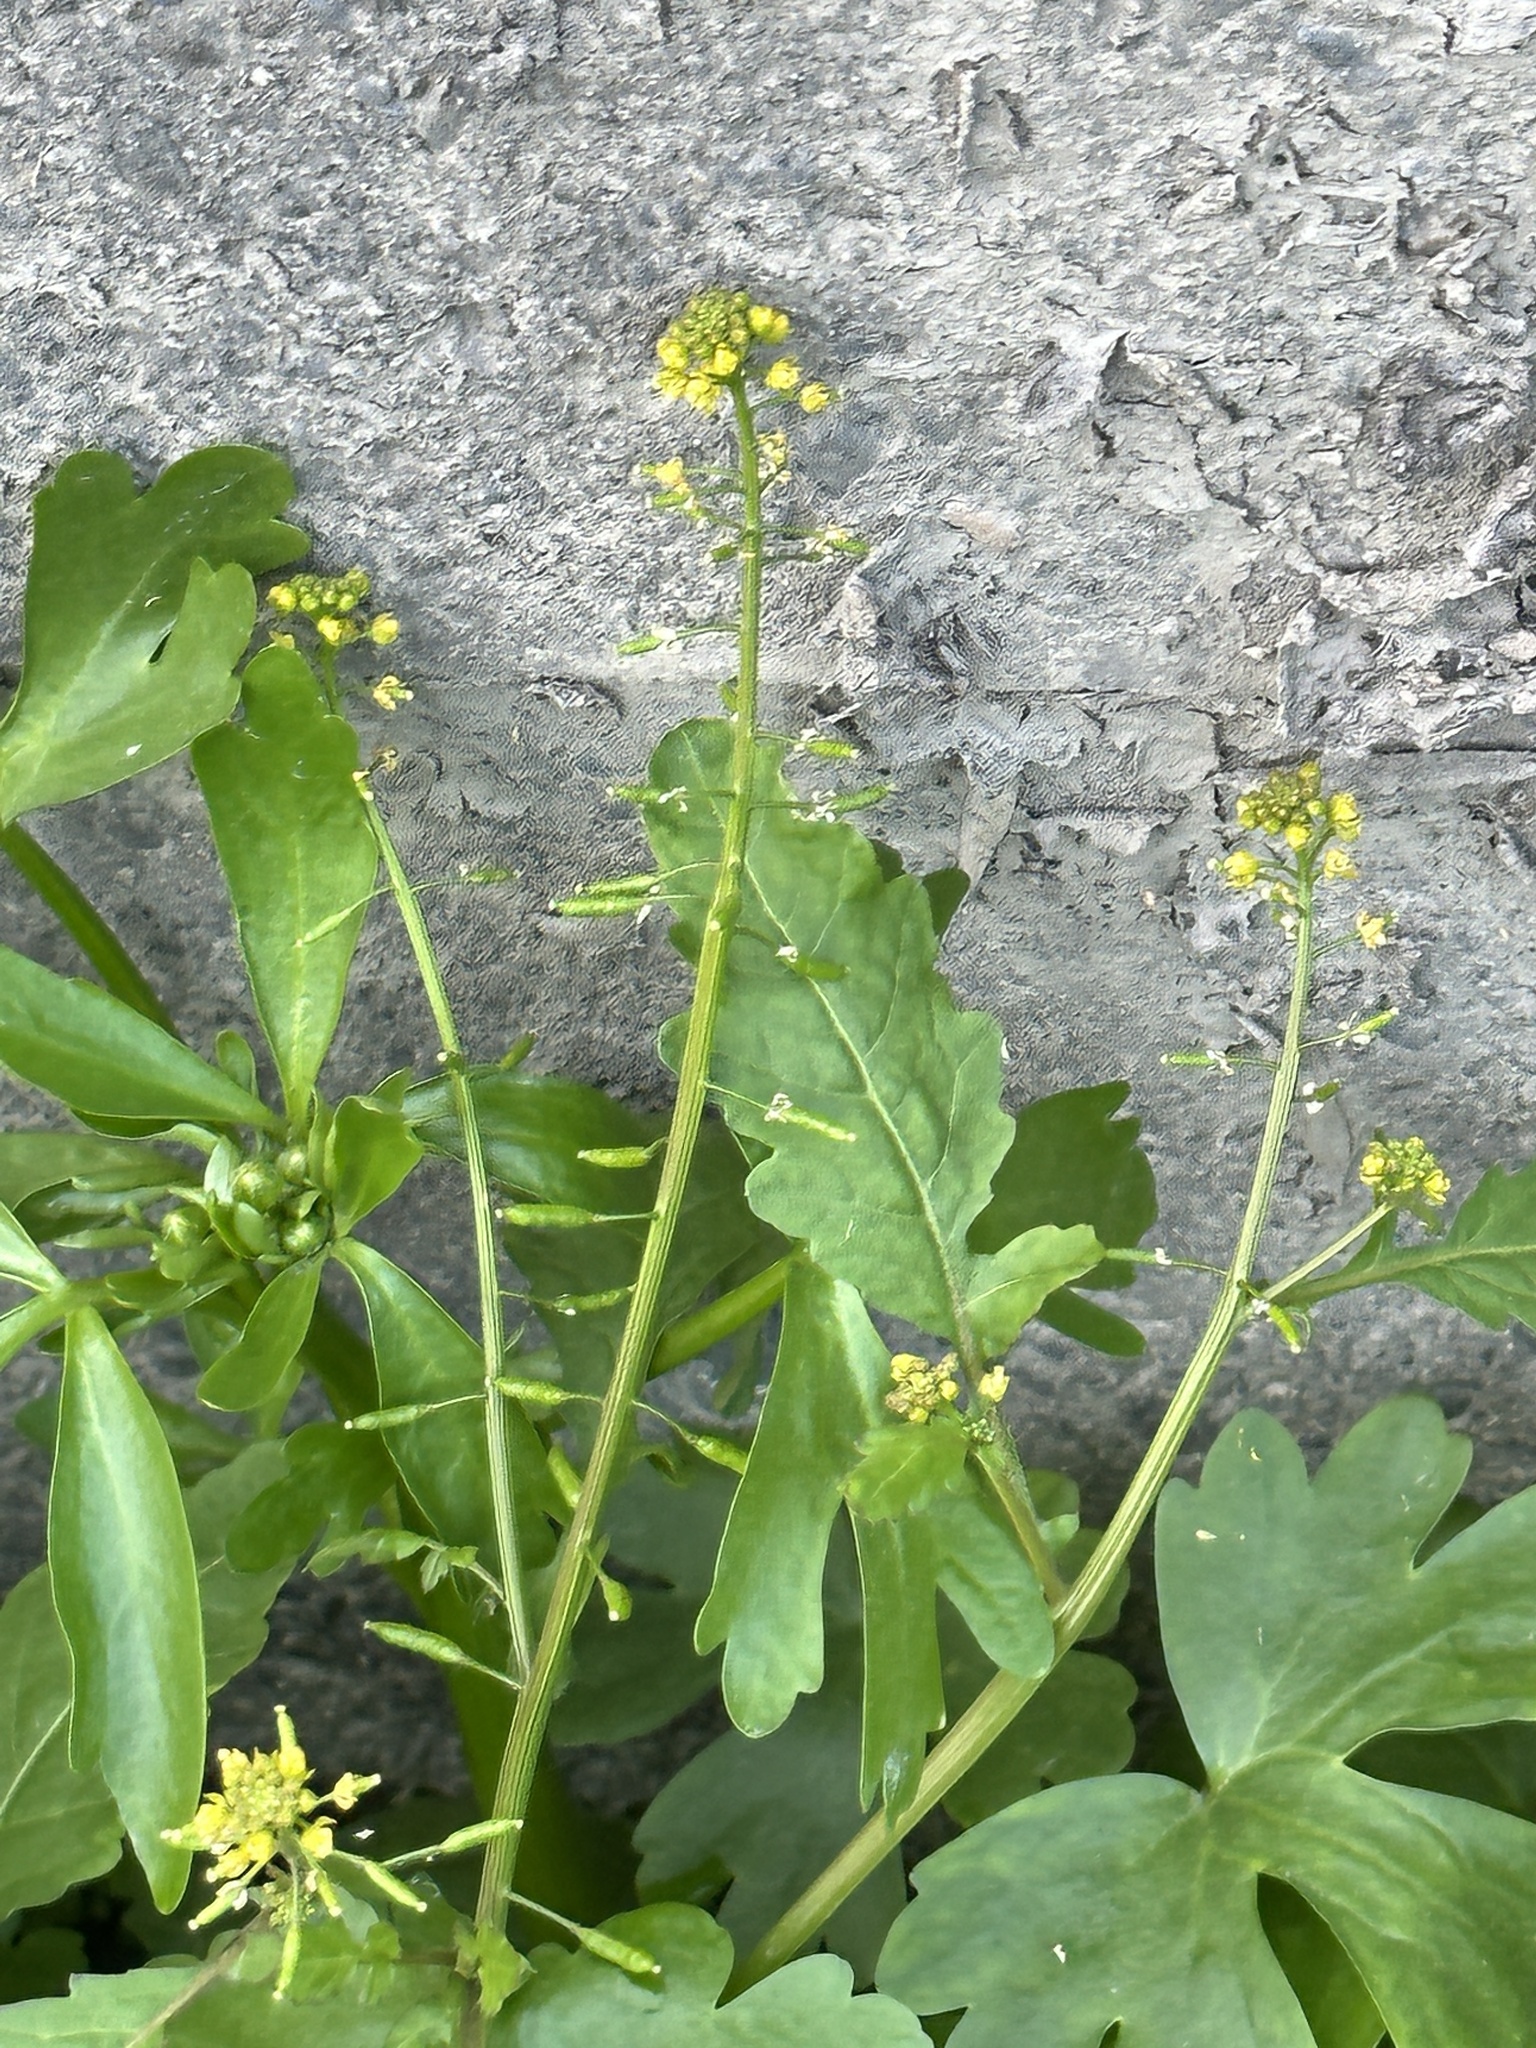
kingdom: Plantae
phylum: Tracheophyta
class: Magnoliopsida
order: Brassicales
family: Brassicaceae
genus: Rorippa
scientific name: Rorippa palustris
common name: Marsh yellow-cress
